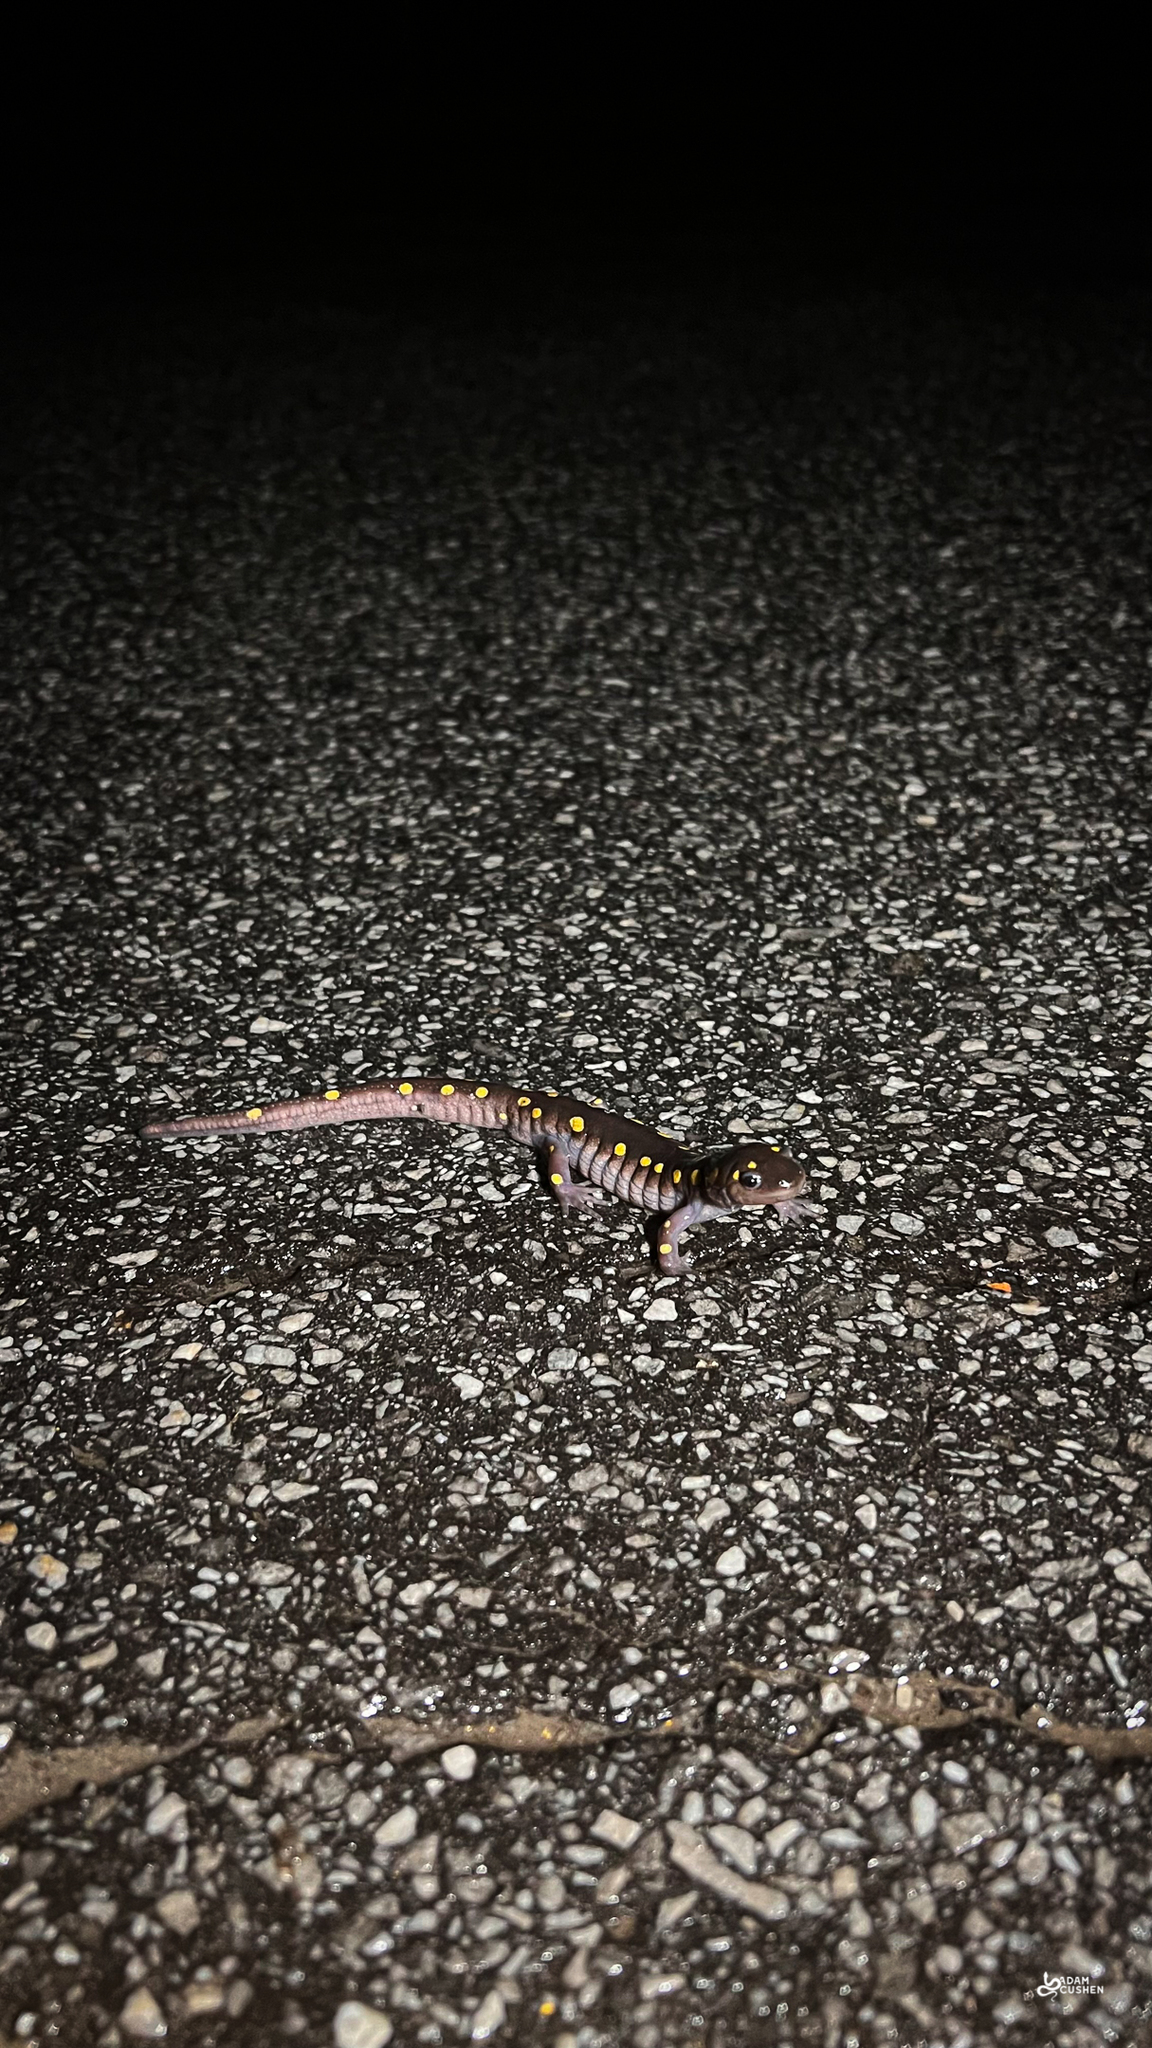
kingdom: Animalia
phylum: Chordata
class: Amphibia
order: Caudata
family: Ambystomatidae
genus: Ambystoma
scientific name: Ambystoma maculatum
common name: Spotted salamander
